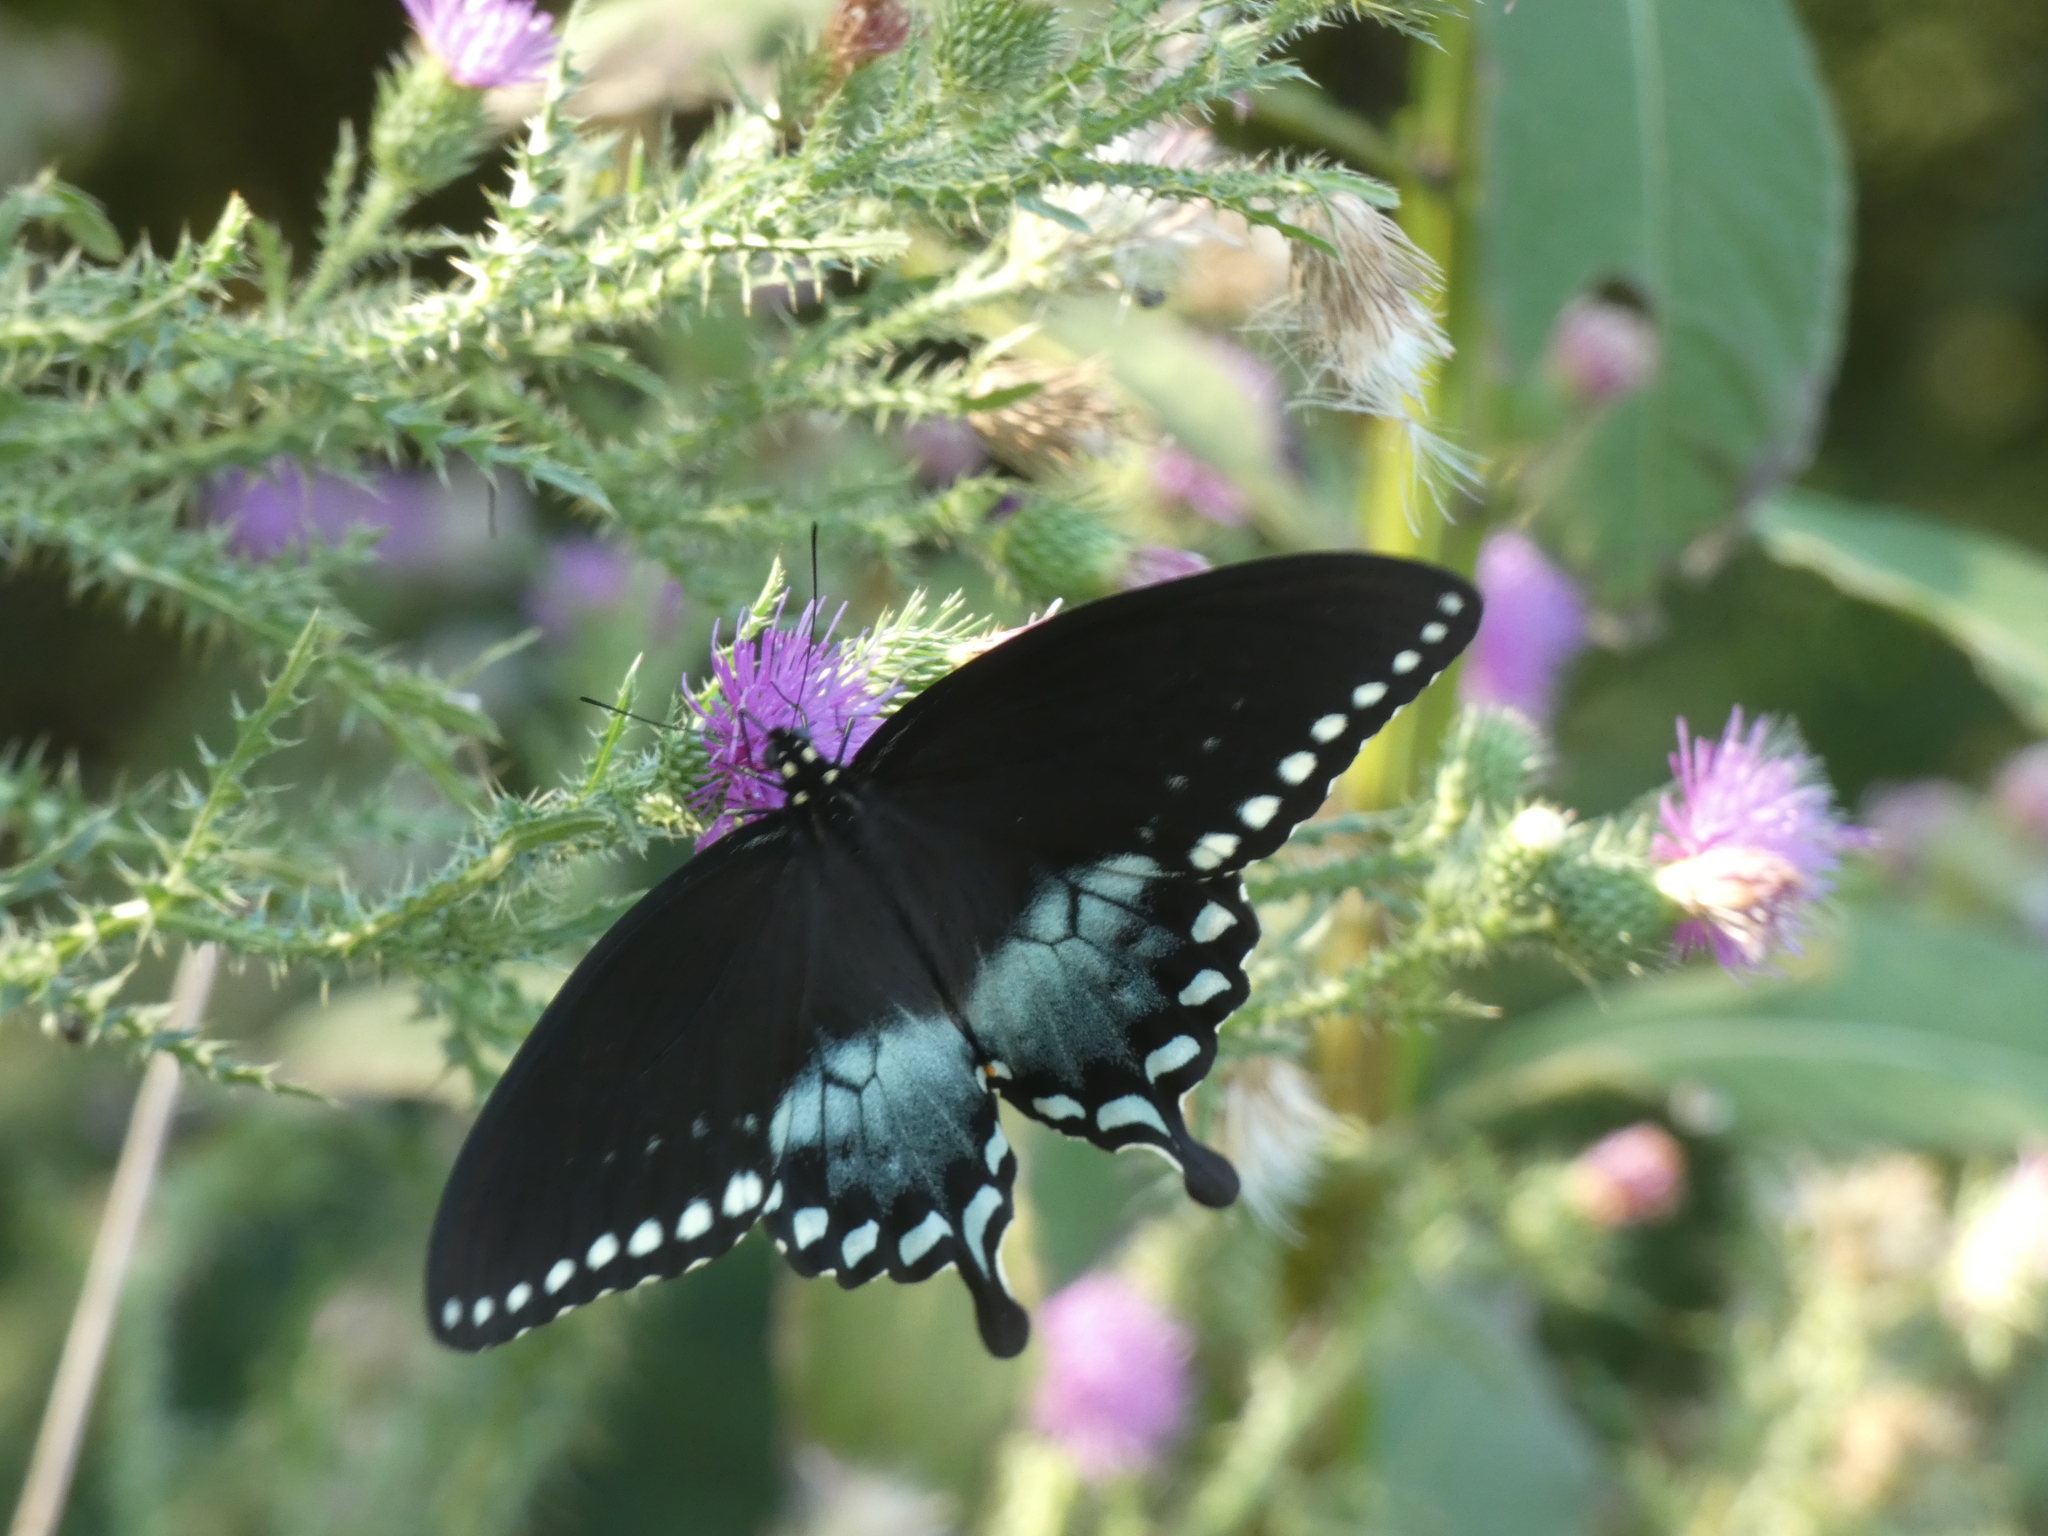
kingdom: Animalia
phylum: Arthropoda
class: Insecta
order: Lepidoptera
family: Papilionidae
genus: Papilio
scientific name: Papilio troilus
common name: Spicebush swallowtail
